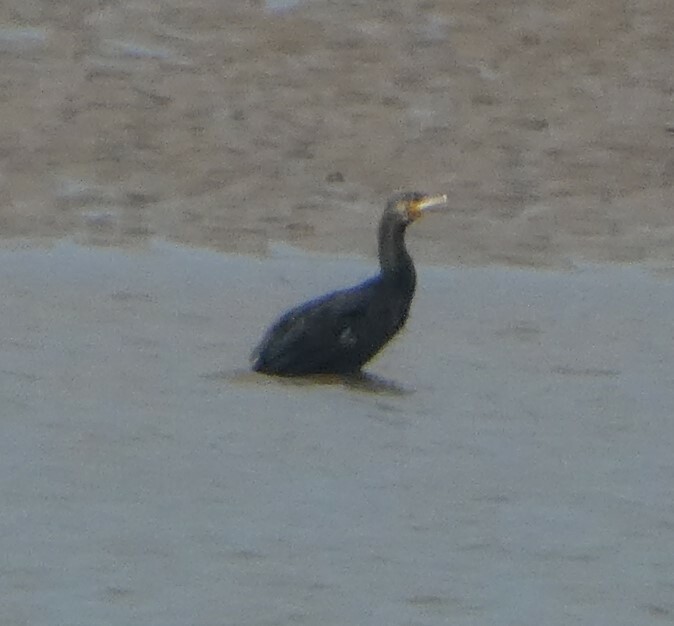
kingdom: Animalia
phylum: Chordata
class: Aves
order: Suliformes
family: Phalacrocoracidae
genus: Phalacrocorax
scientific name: Phalacrocorax carbo
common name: Great cormorant
